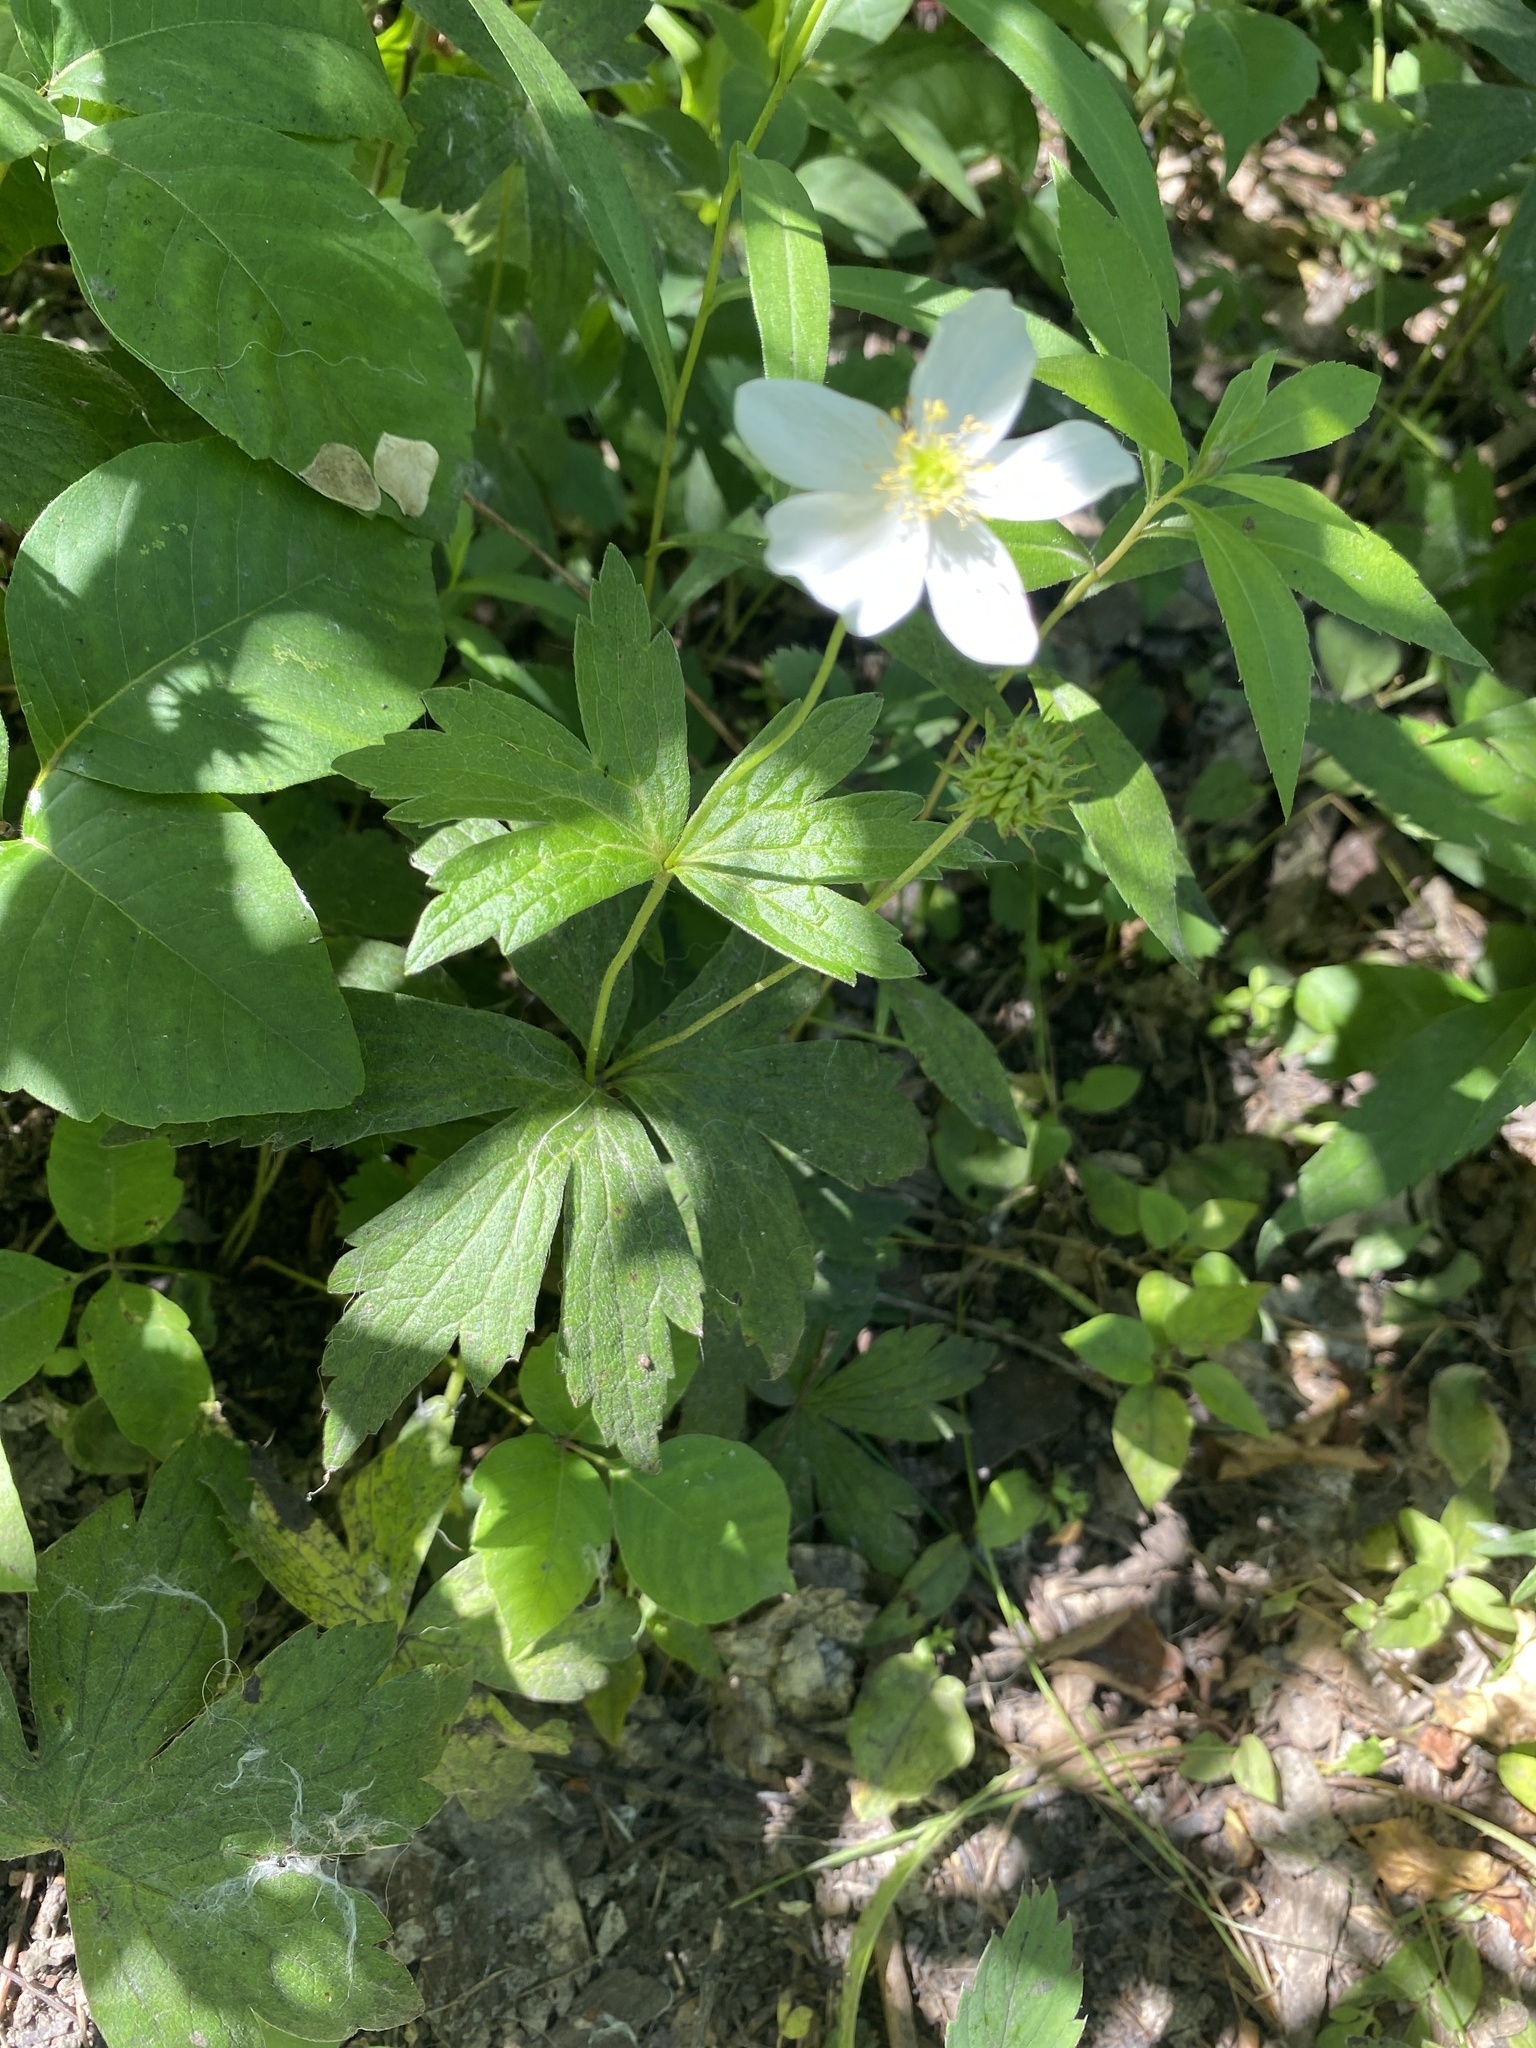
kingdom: Plantae
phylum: Tracheophyta
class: Magnoliopsida
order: Ranunculales
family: Ranunculaceae
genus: Anemonastrum
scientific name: Anemonastrum canadense
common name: Canada anemone
